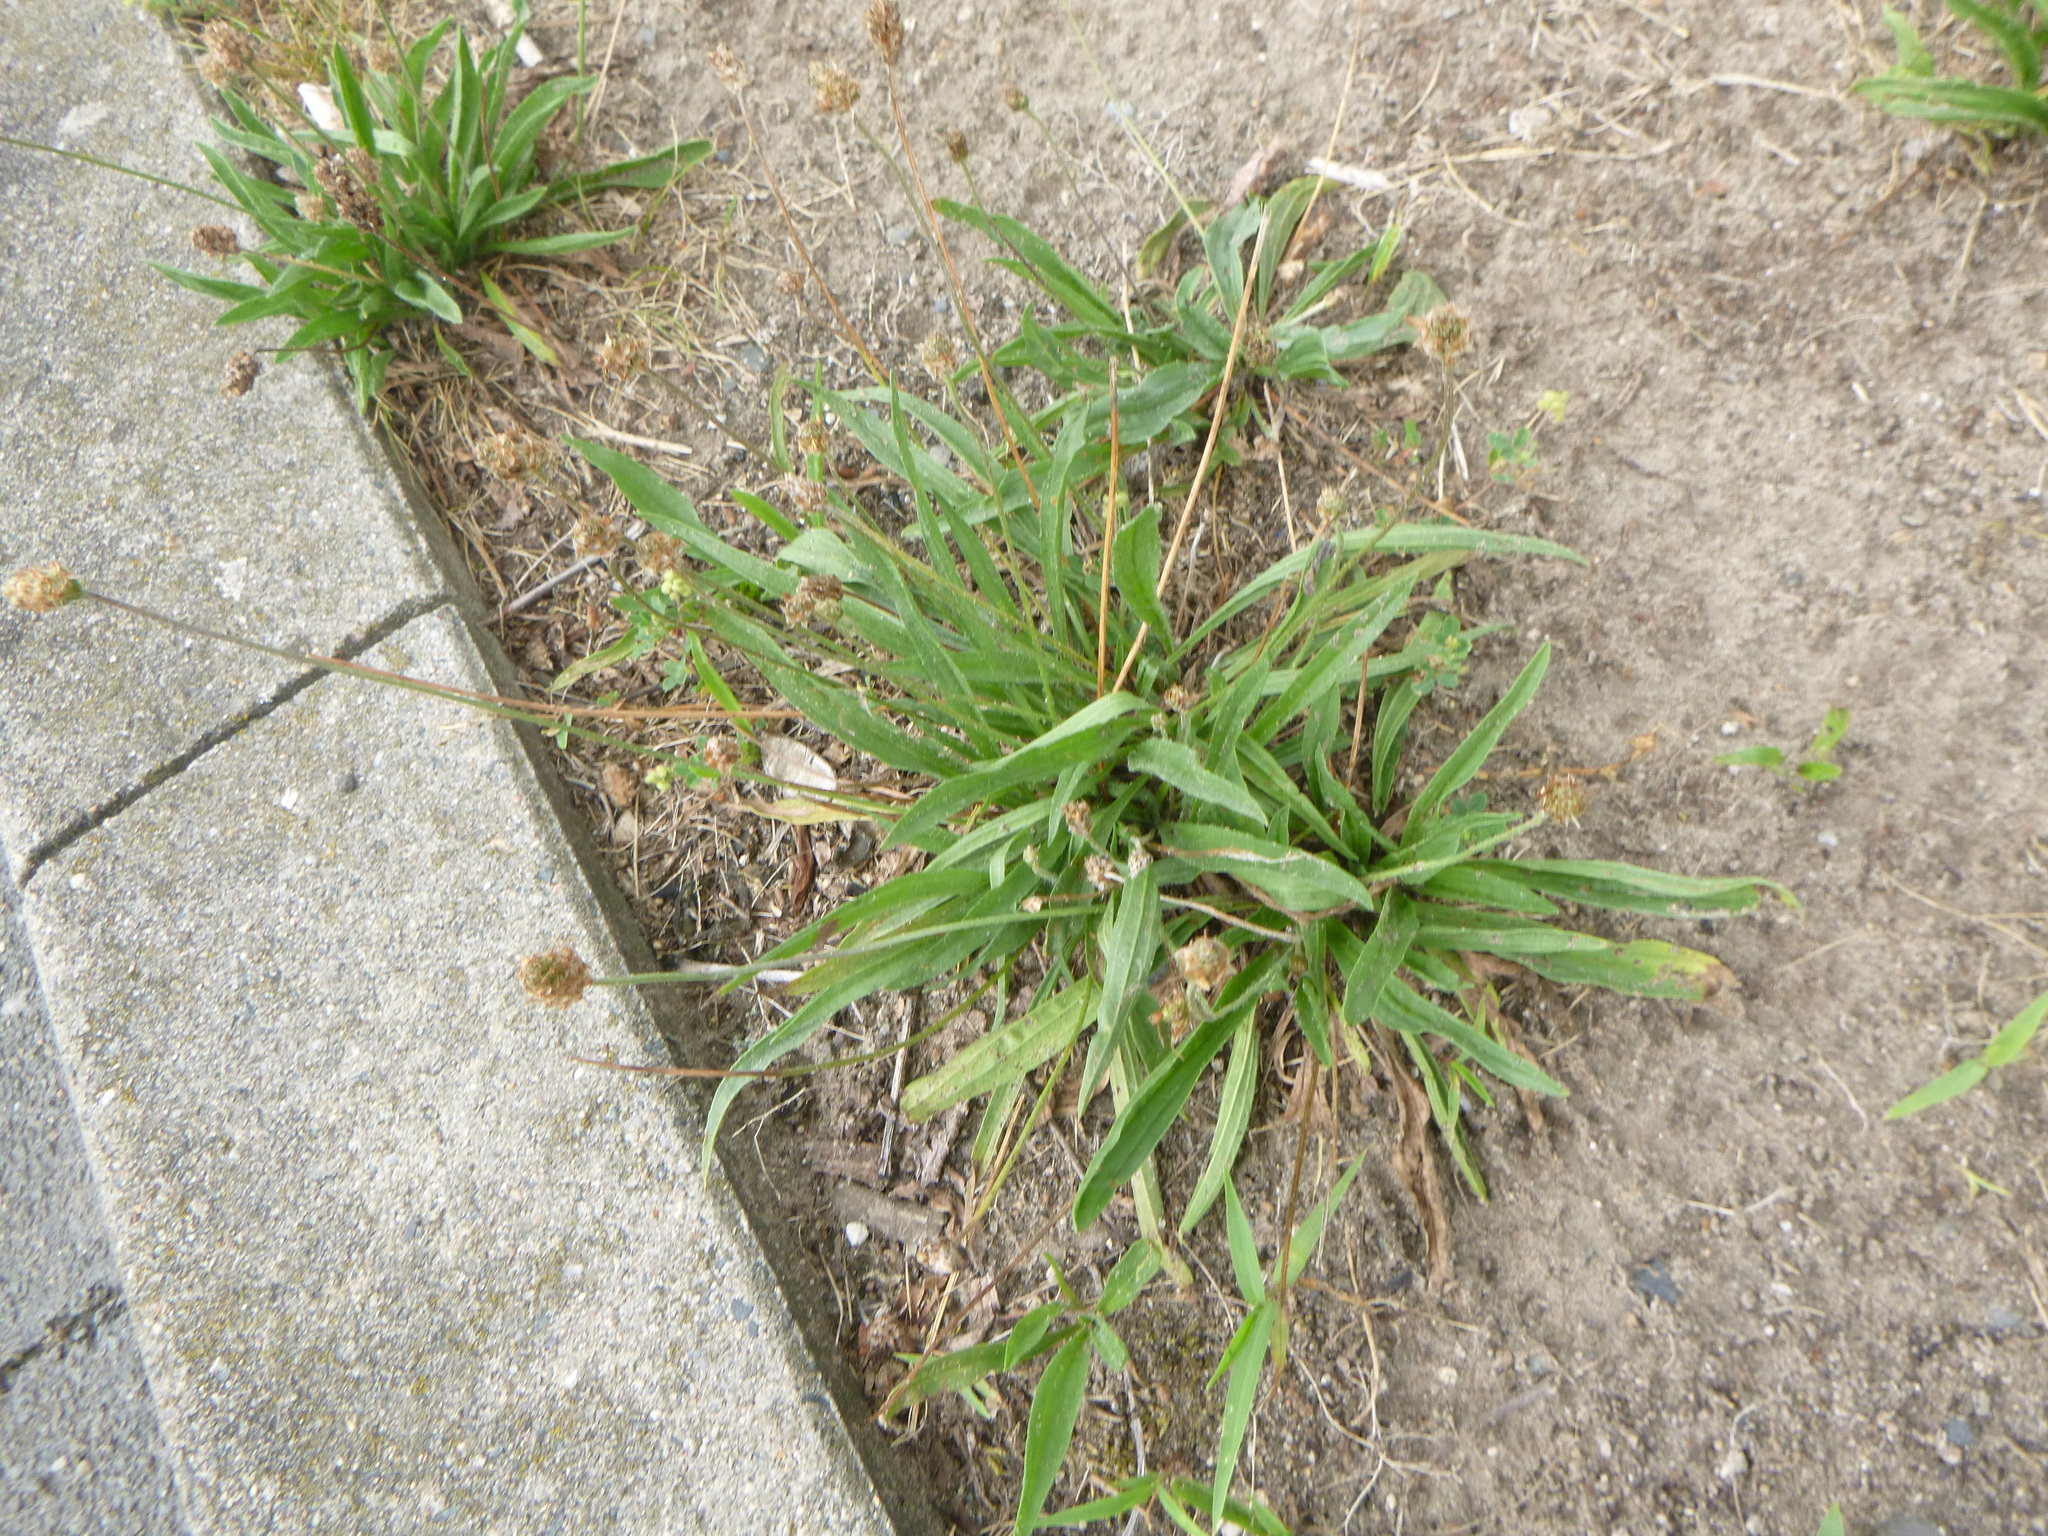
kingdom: Plantae
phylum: Tracheophyta
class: Magnoliopsida
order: Lamiales
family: Plantaginaceae
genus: Plantago
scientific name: Plantago lanceolata
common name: Ribwort plantain
